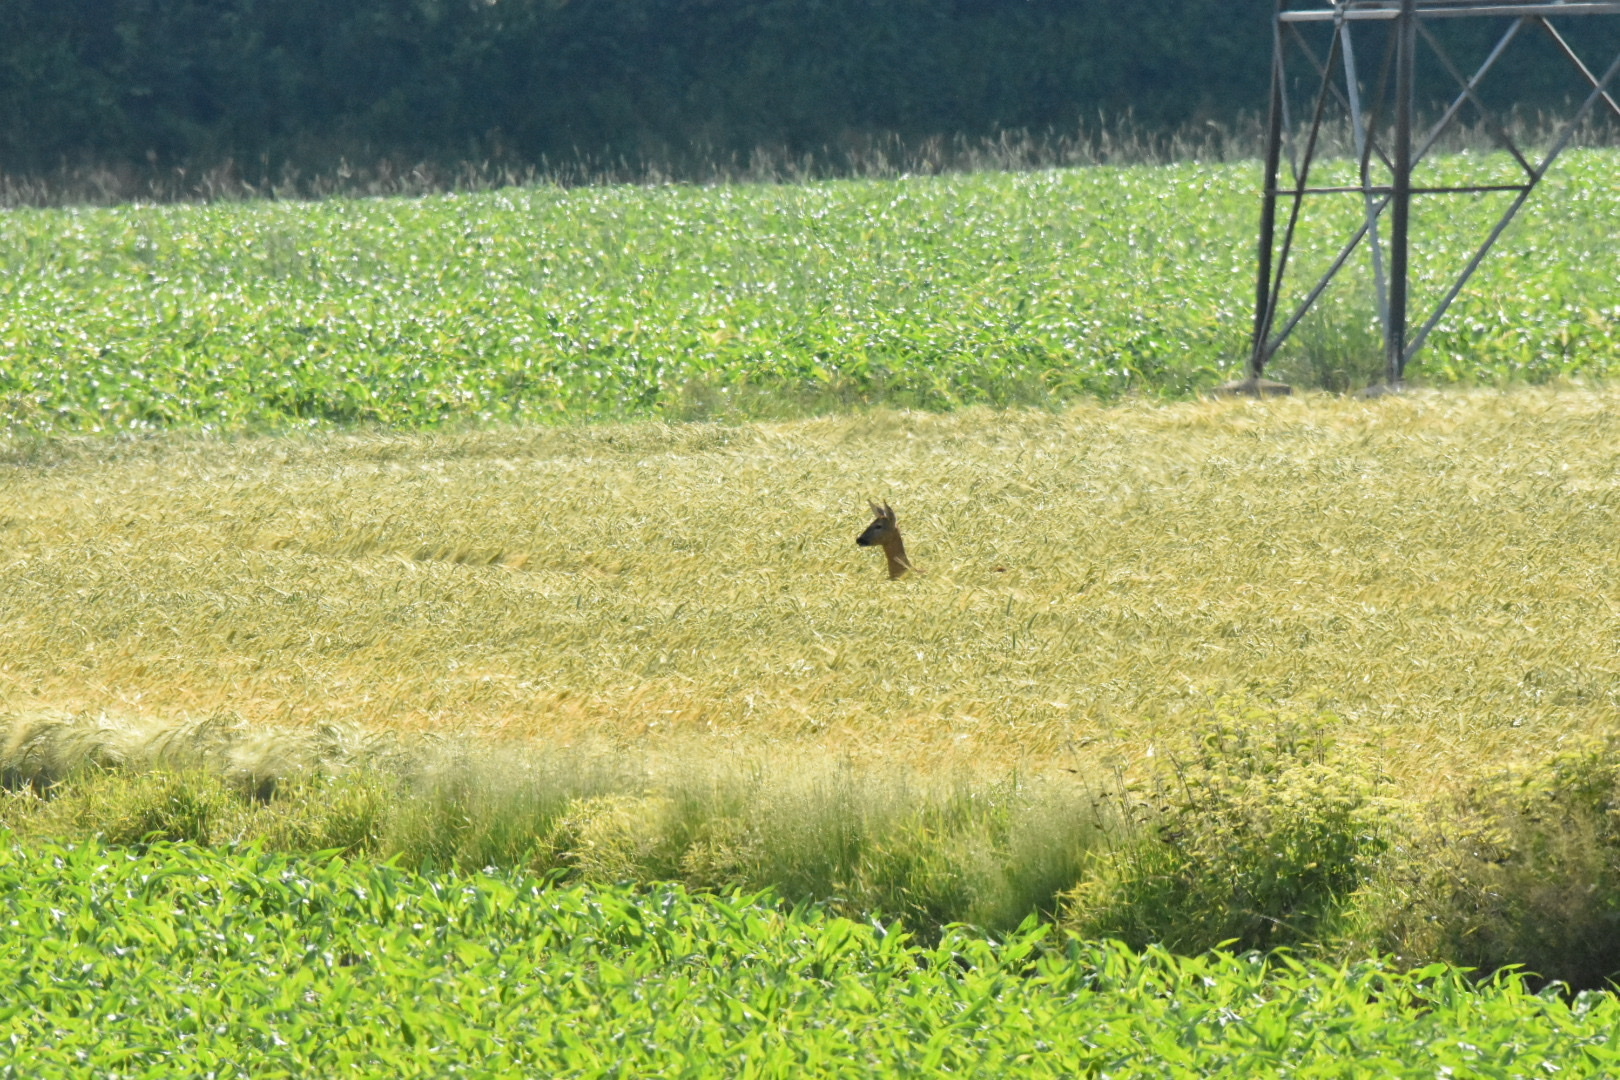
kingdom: Animalia
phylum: Chordata
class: Mammalia
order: Artiodactyla
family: Cervidae
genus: Capreolus
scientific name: Capreolus capreolus
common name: Western roe deer
